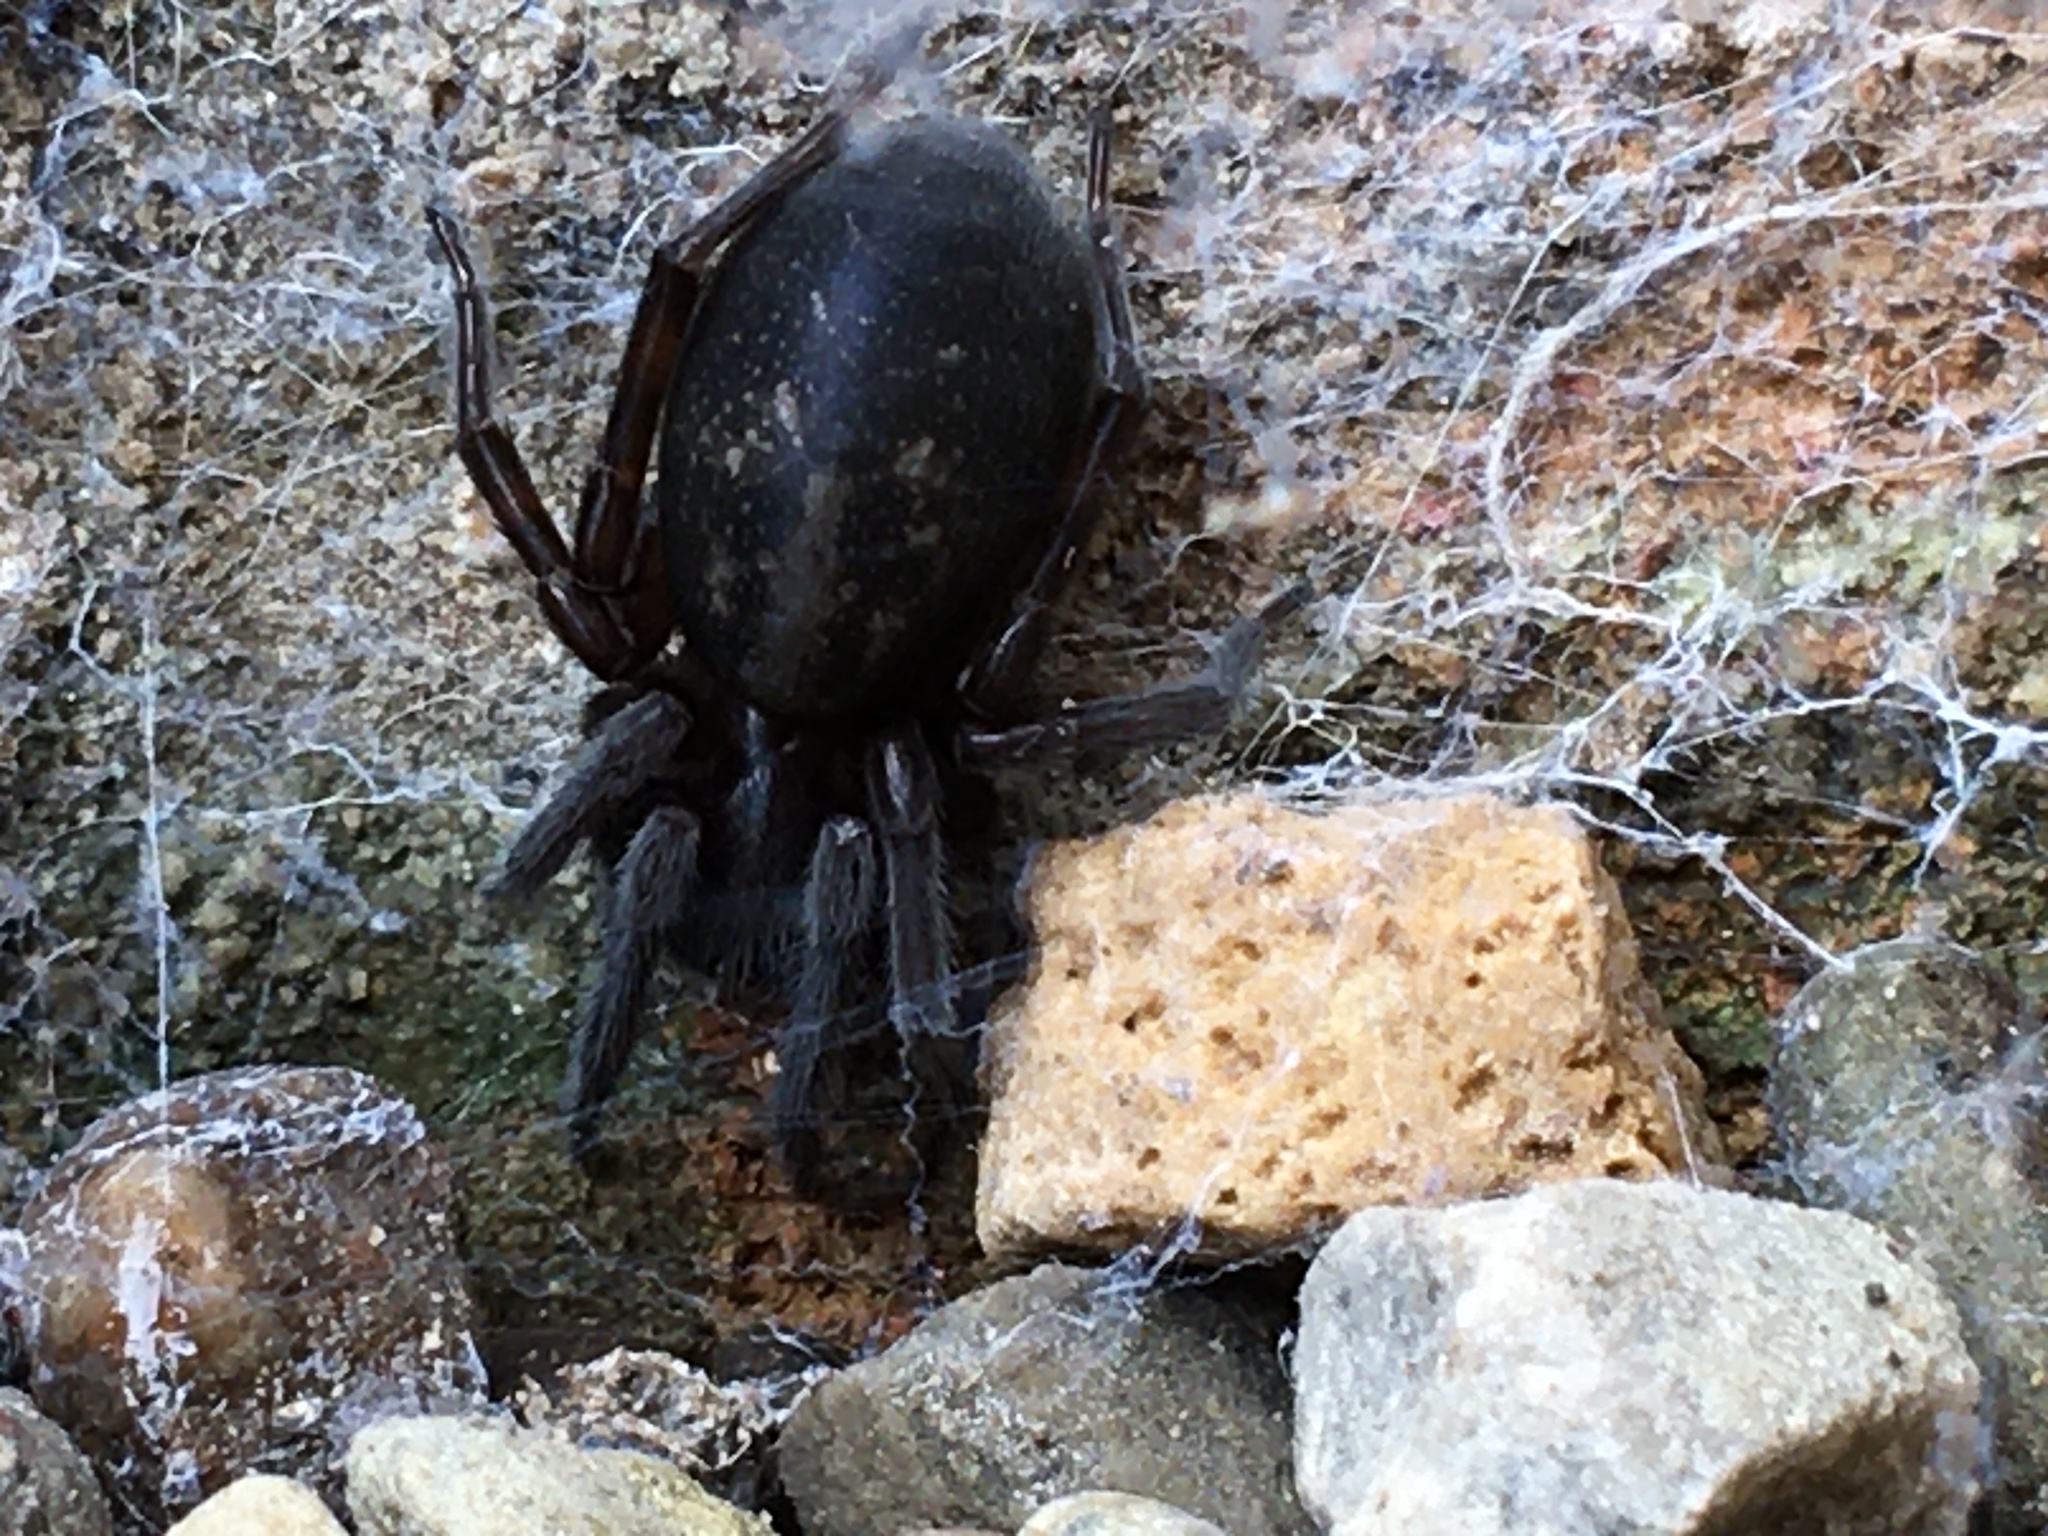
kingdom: Animalia
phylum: Arthropoda
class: Arachnida
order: Araneae
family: Amaurobiidae
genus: Amaurobius
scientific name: Amaurobius ferox
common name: Black laceweaver
